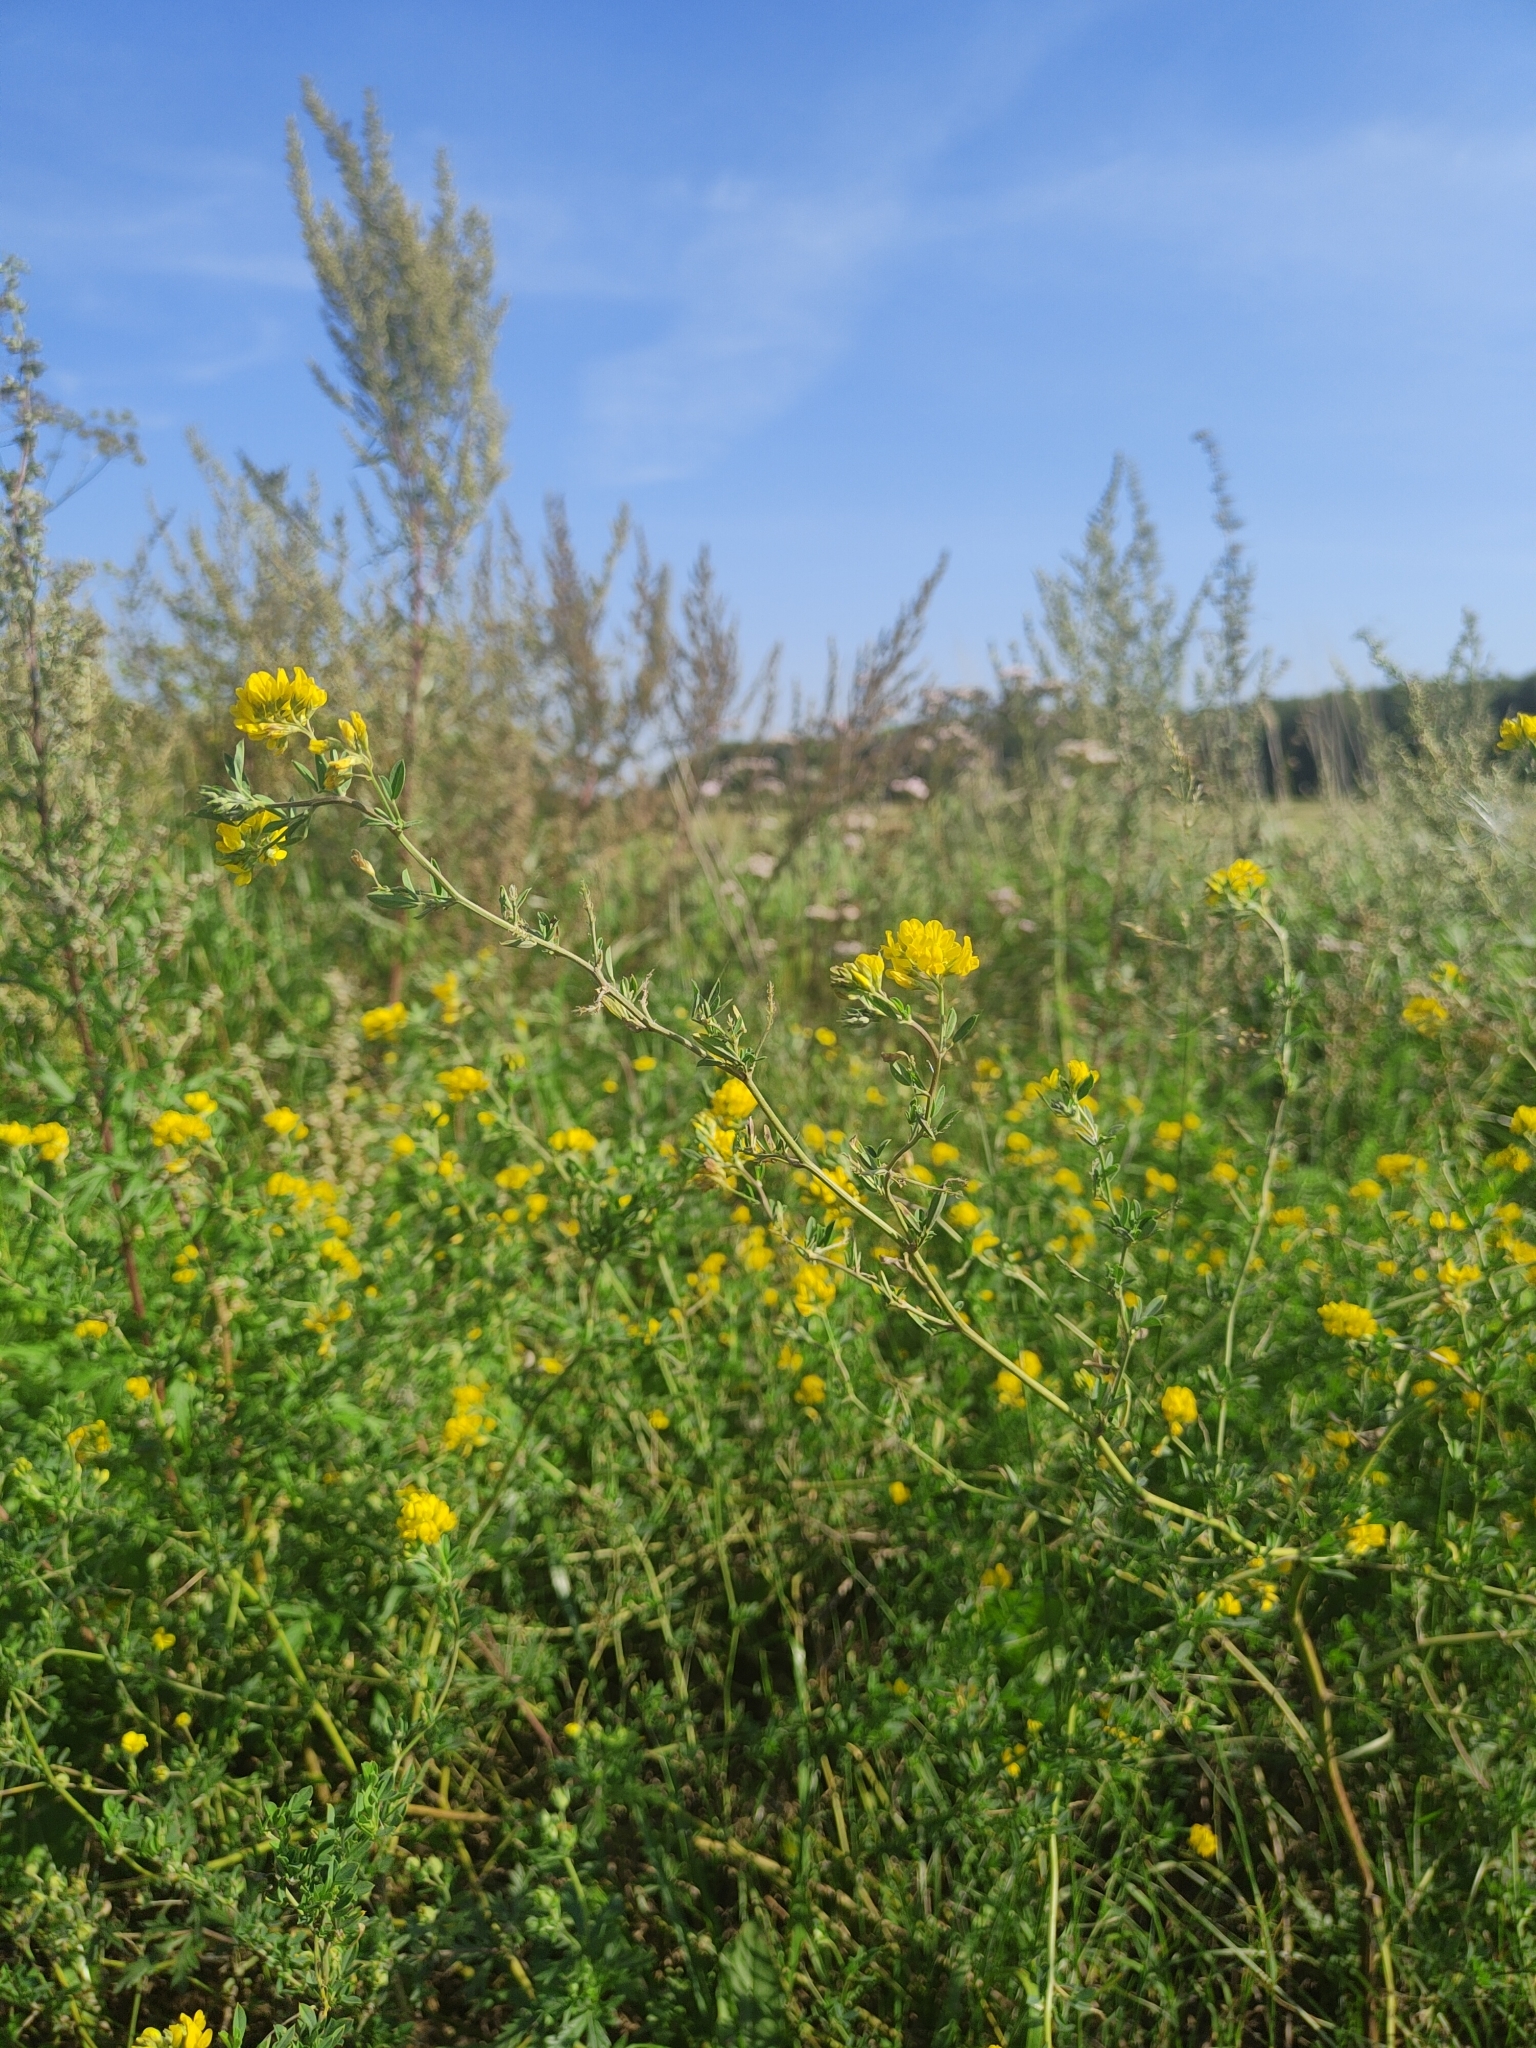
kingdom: Plantae
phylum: Tracheophyta
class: Magnoliopsida
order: Fabales
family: Fabaceae
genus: Medicago
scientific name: Medicago falcata
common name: Sickle medick
